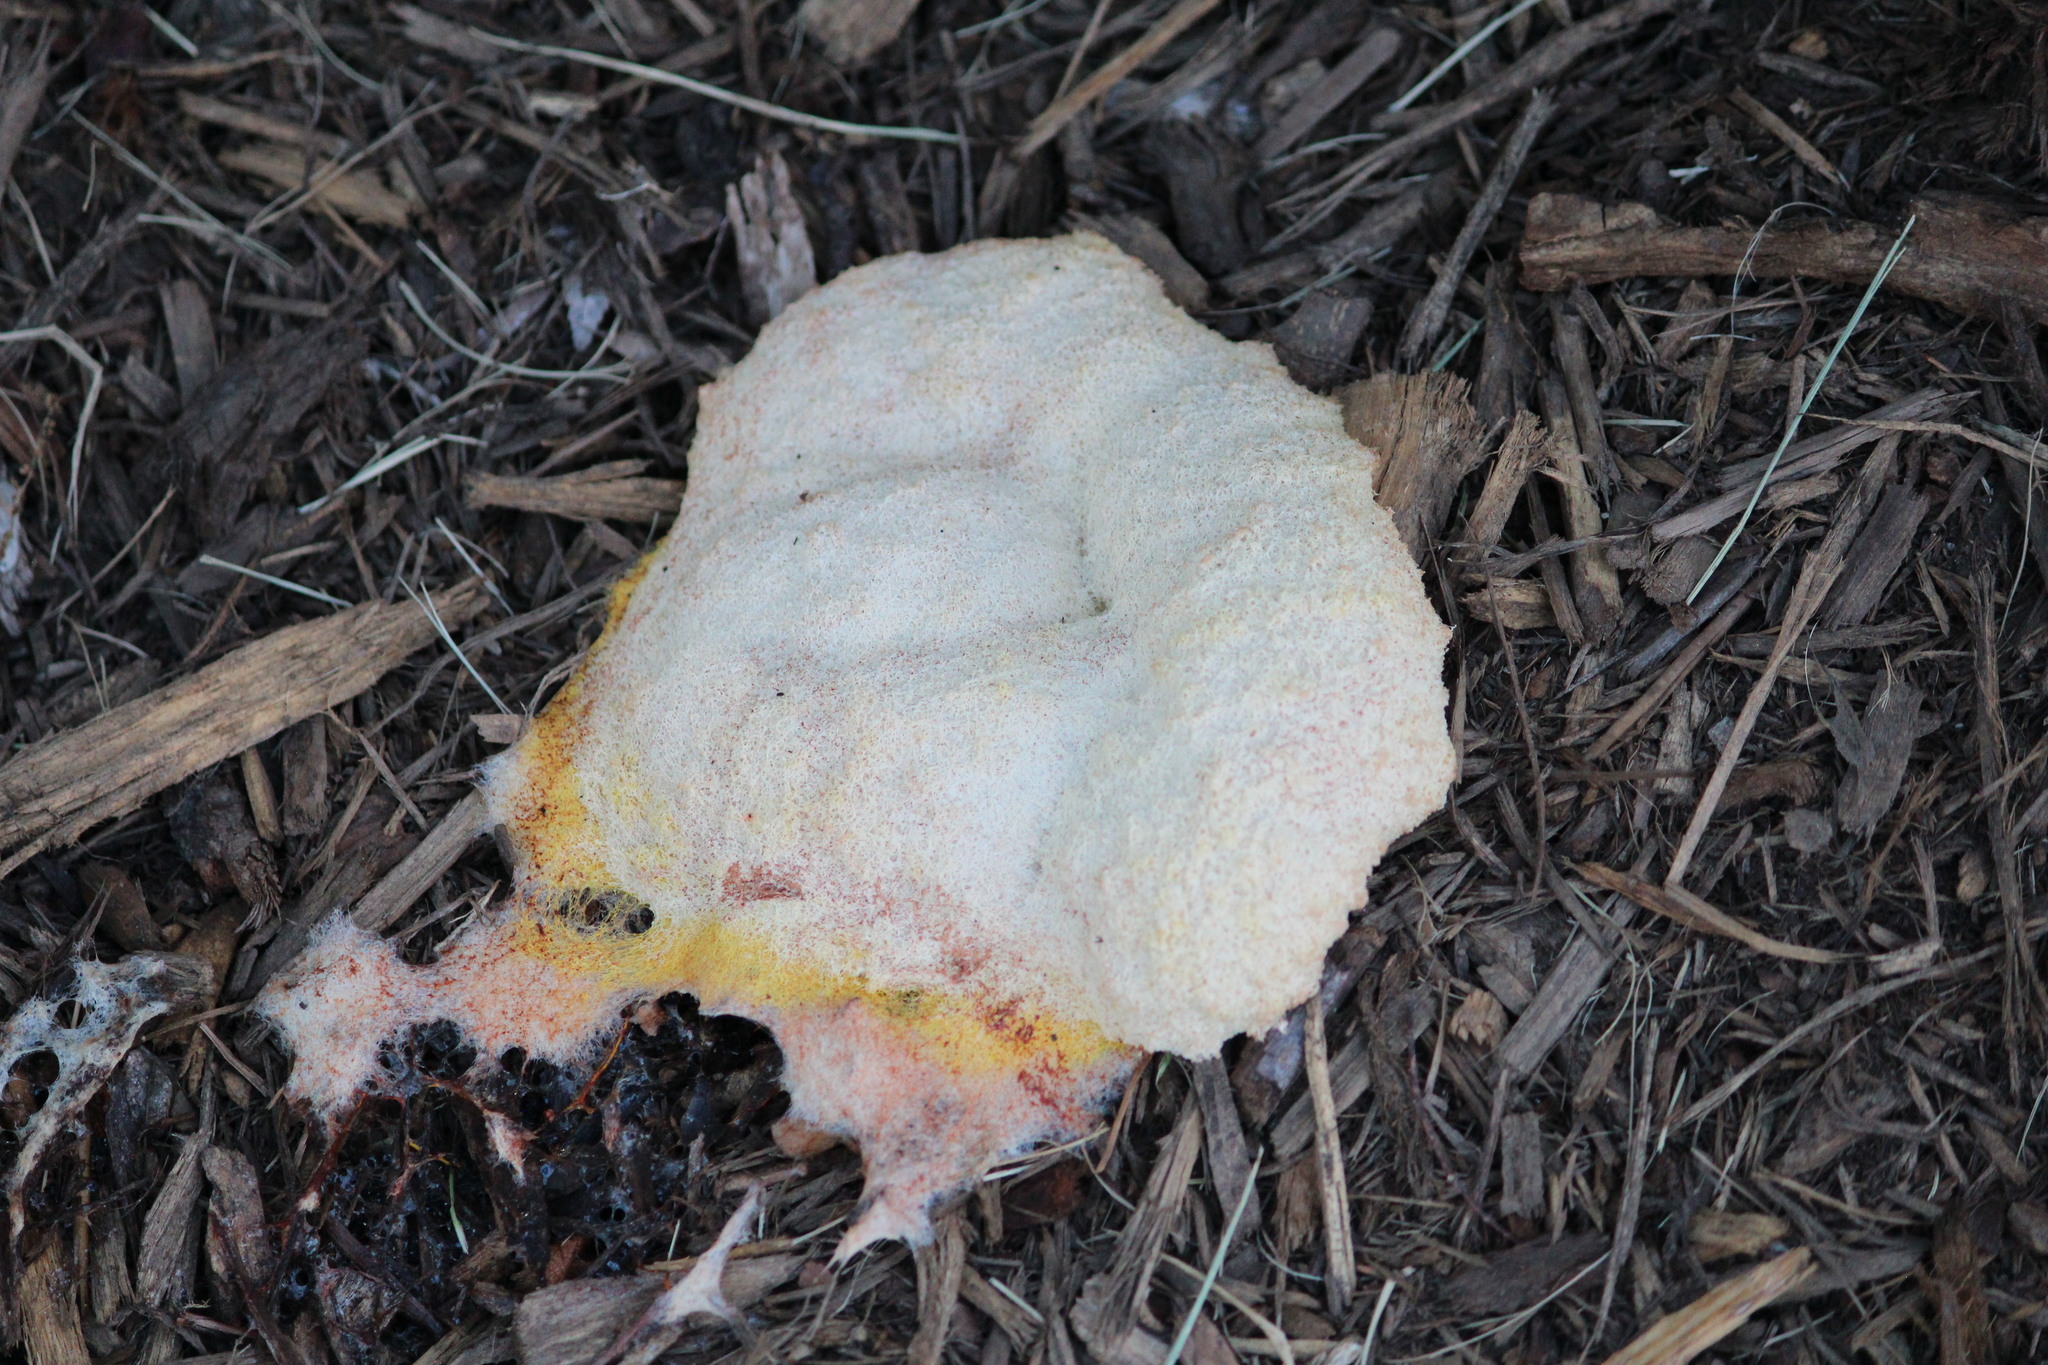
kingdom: Protozoa
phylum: Mycetozoa
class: Myxomycetes
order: Physarales
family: Physaraceae
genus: Fuligo
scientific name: Fuligo septica
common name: Dog vomit slime mold
